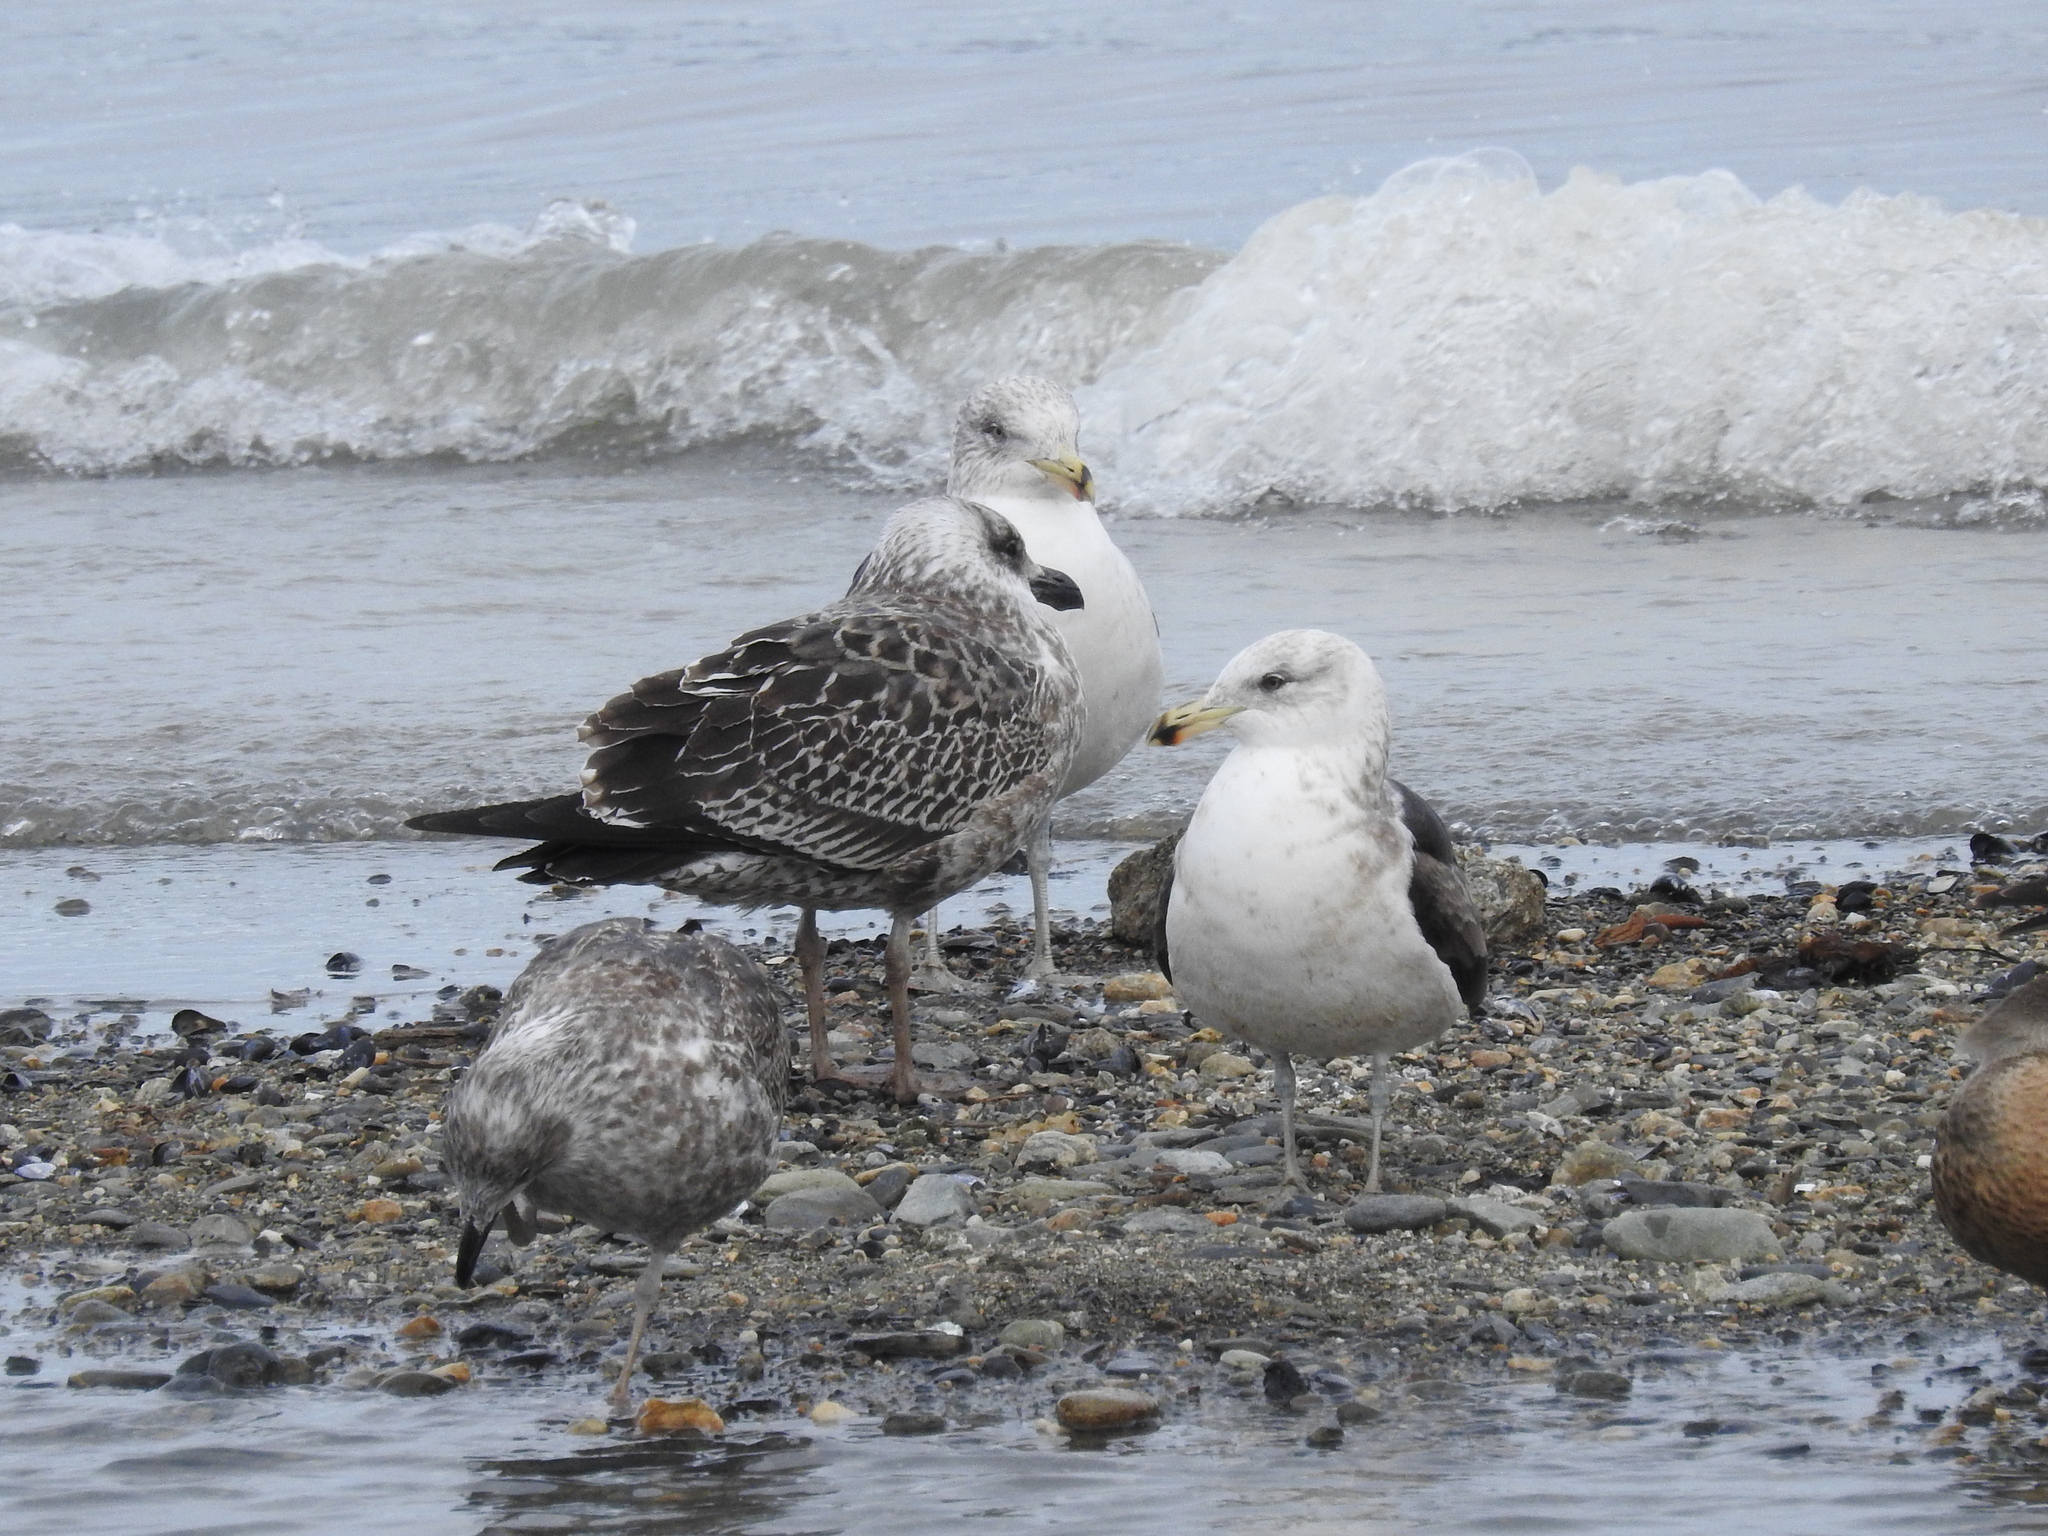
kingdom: Animalia
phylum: Chordata
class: Aves
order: Charadriiformes
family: Laridae
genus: Larus
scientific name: Larus dominicanus
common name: Kelp gull
